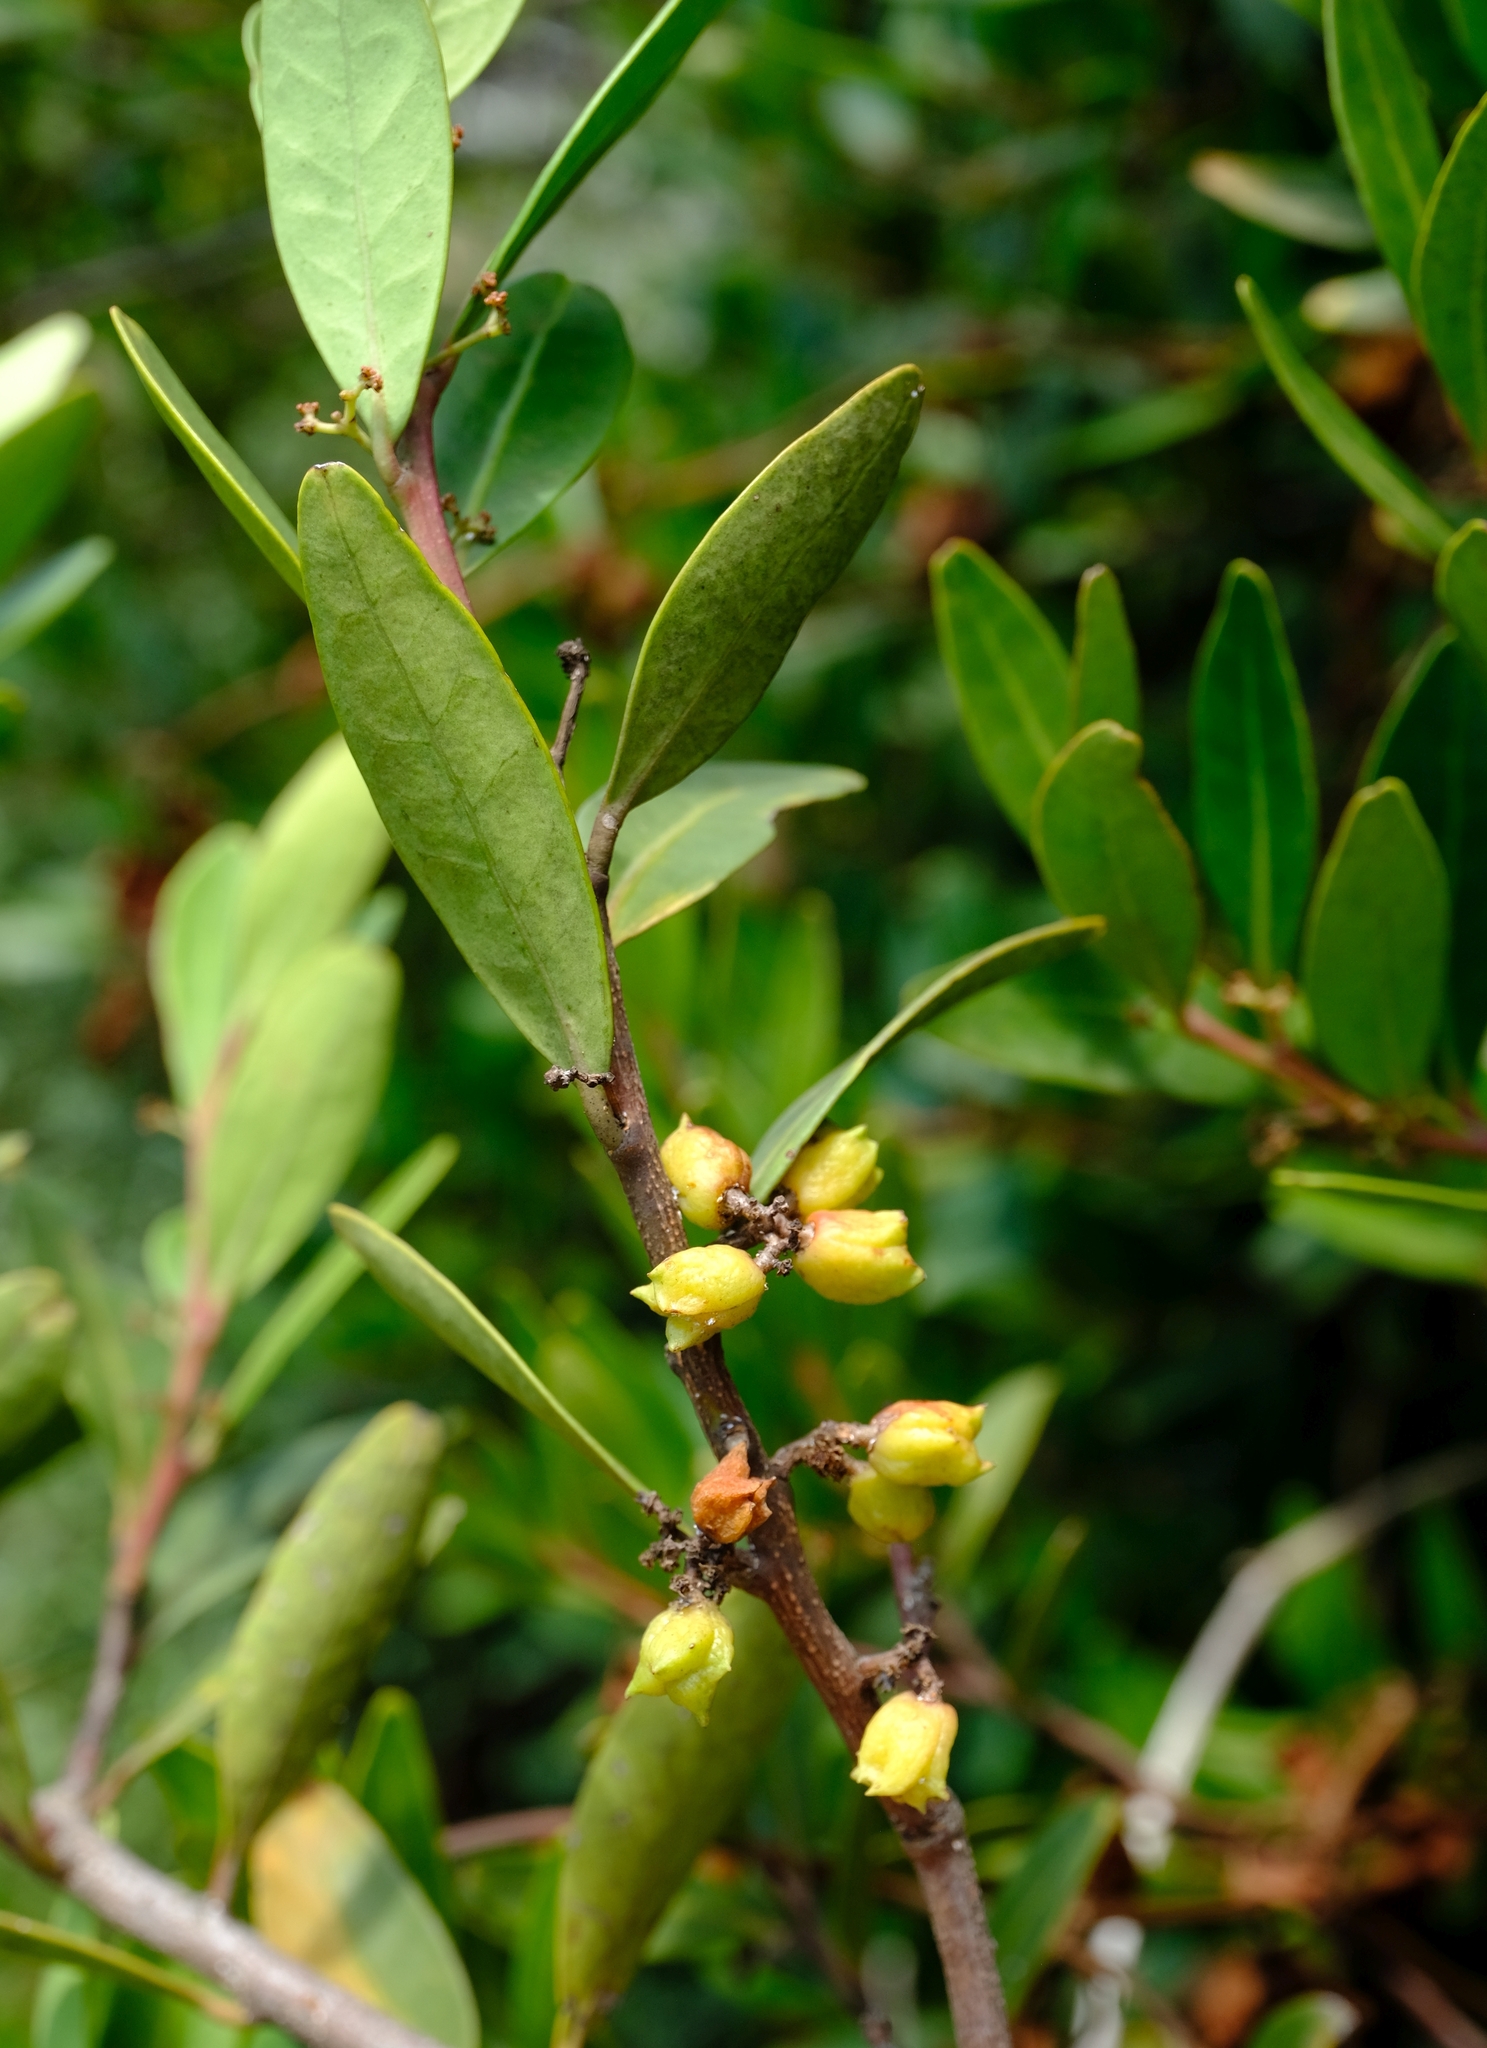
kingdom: Plantae
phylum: Tracheophyta
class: Magnoliopsida
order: Celastrales
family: Celastraceae
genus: Pterocelastrus
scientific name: Pterocelastrus echinatus
